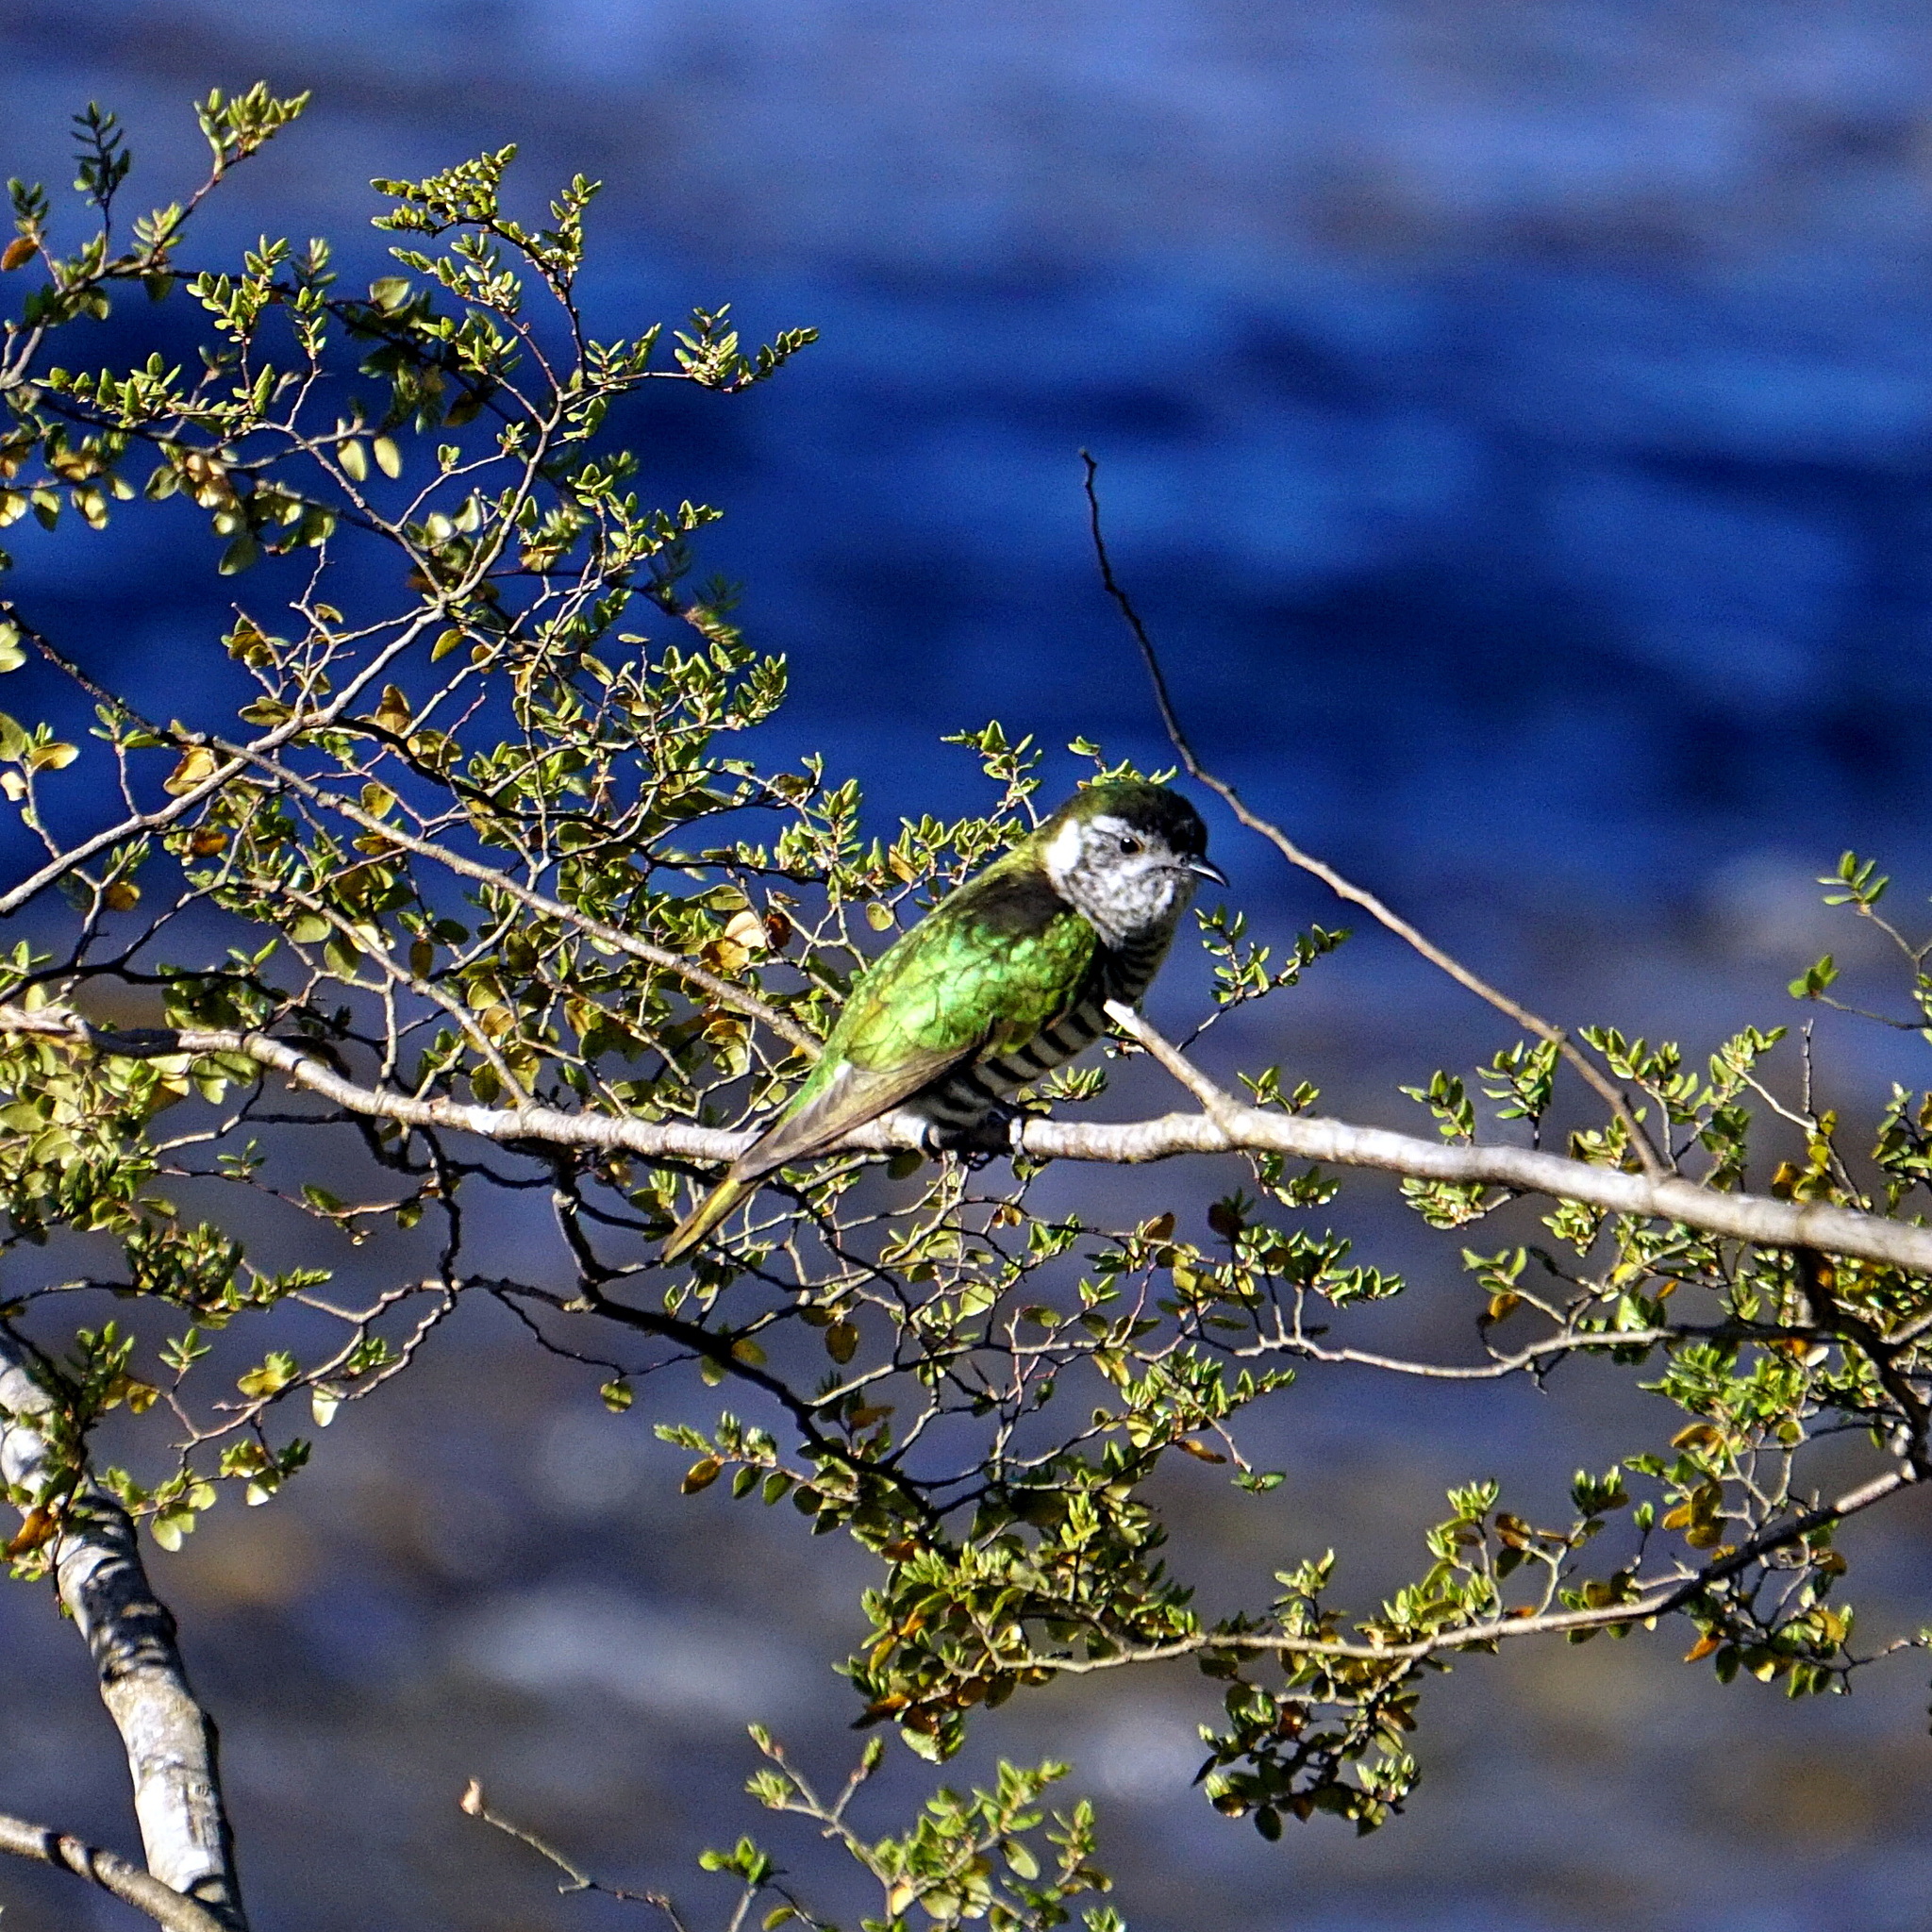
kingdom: Animalia
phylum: Chordata
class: Aves
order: Cuculiformes
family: Cuculidae
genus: Chrysococcyx
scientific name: Chrysococcyx lucidus
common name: Shining bronze cuckoo
